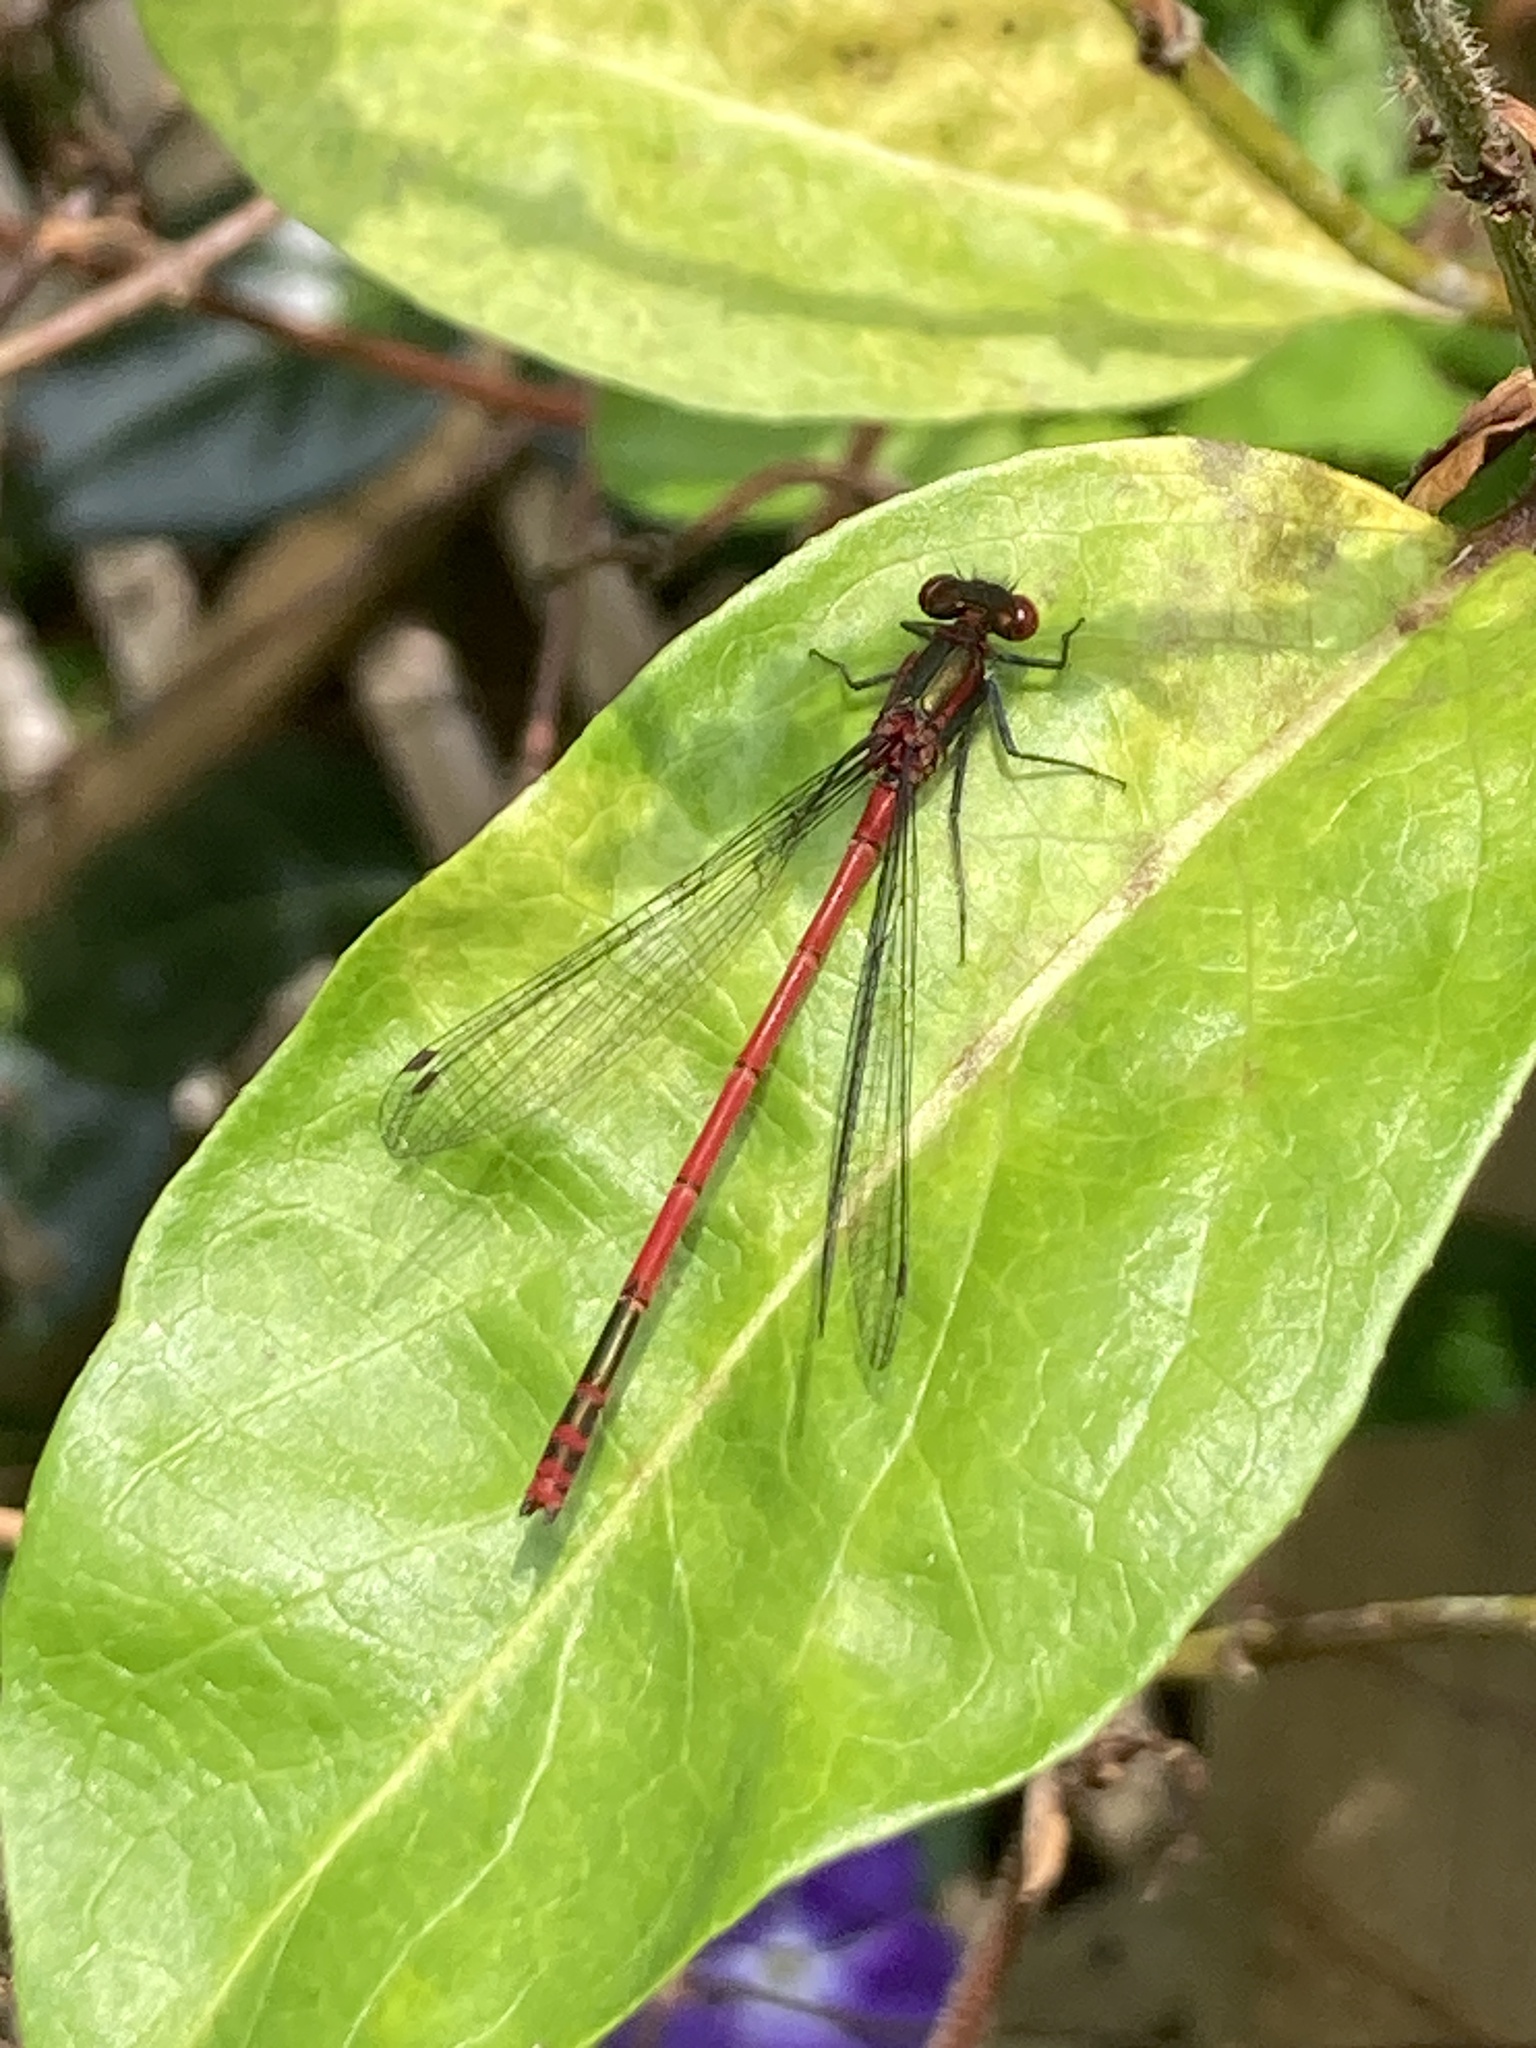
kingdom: Animalia
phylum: Arthropoda
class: Insecta
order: Odonata
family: Coenagrionidae
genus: Pyrrhosoma
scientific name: Pyrrhosoma nymphula
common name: Large red damsel
